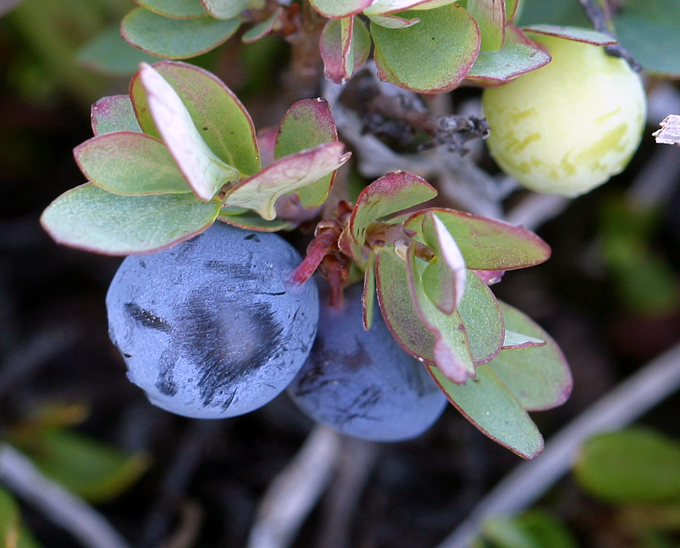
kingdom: Plantae
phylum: Tracheophyta
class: Magnoliopsida
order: Ericales
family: Ericaceae
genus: Vaccinium
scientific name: Vaccinium uliginosum
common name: Bog bilberry
